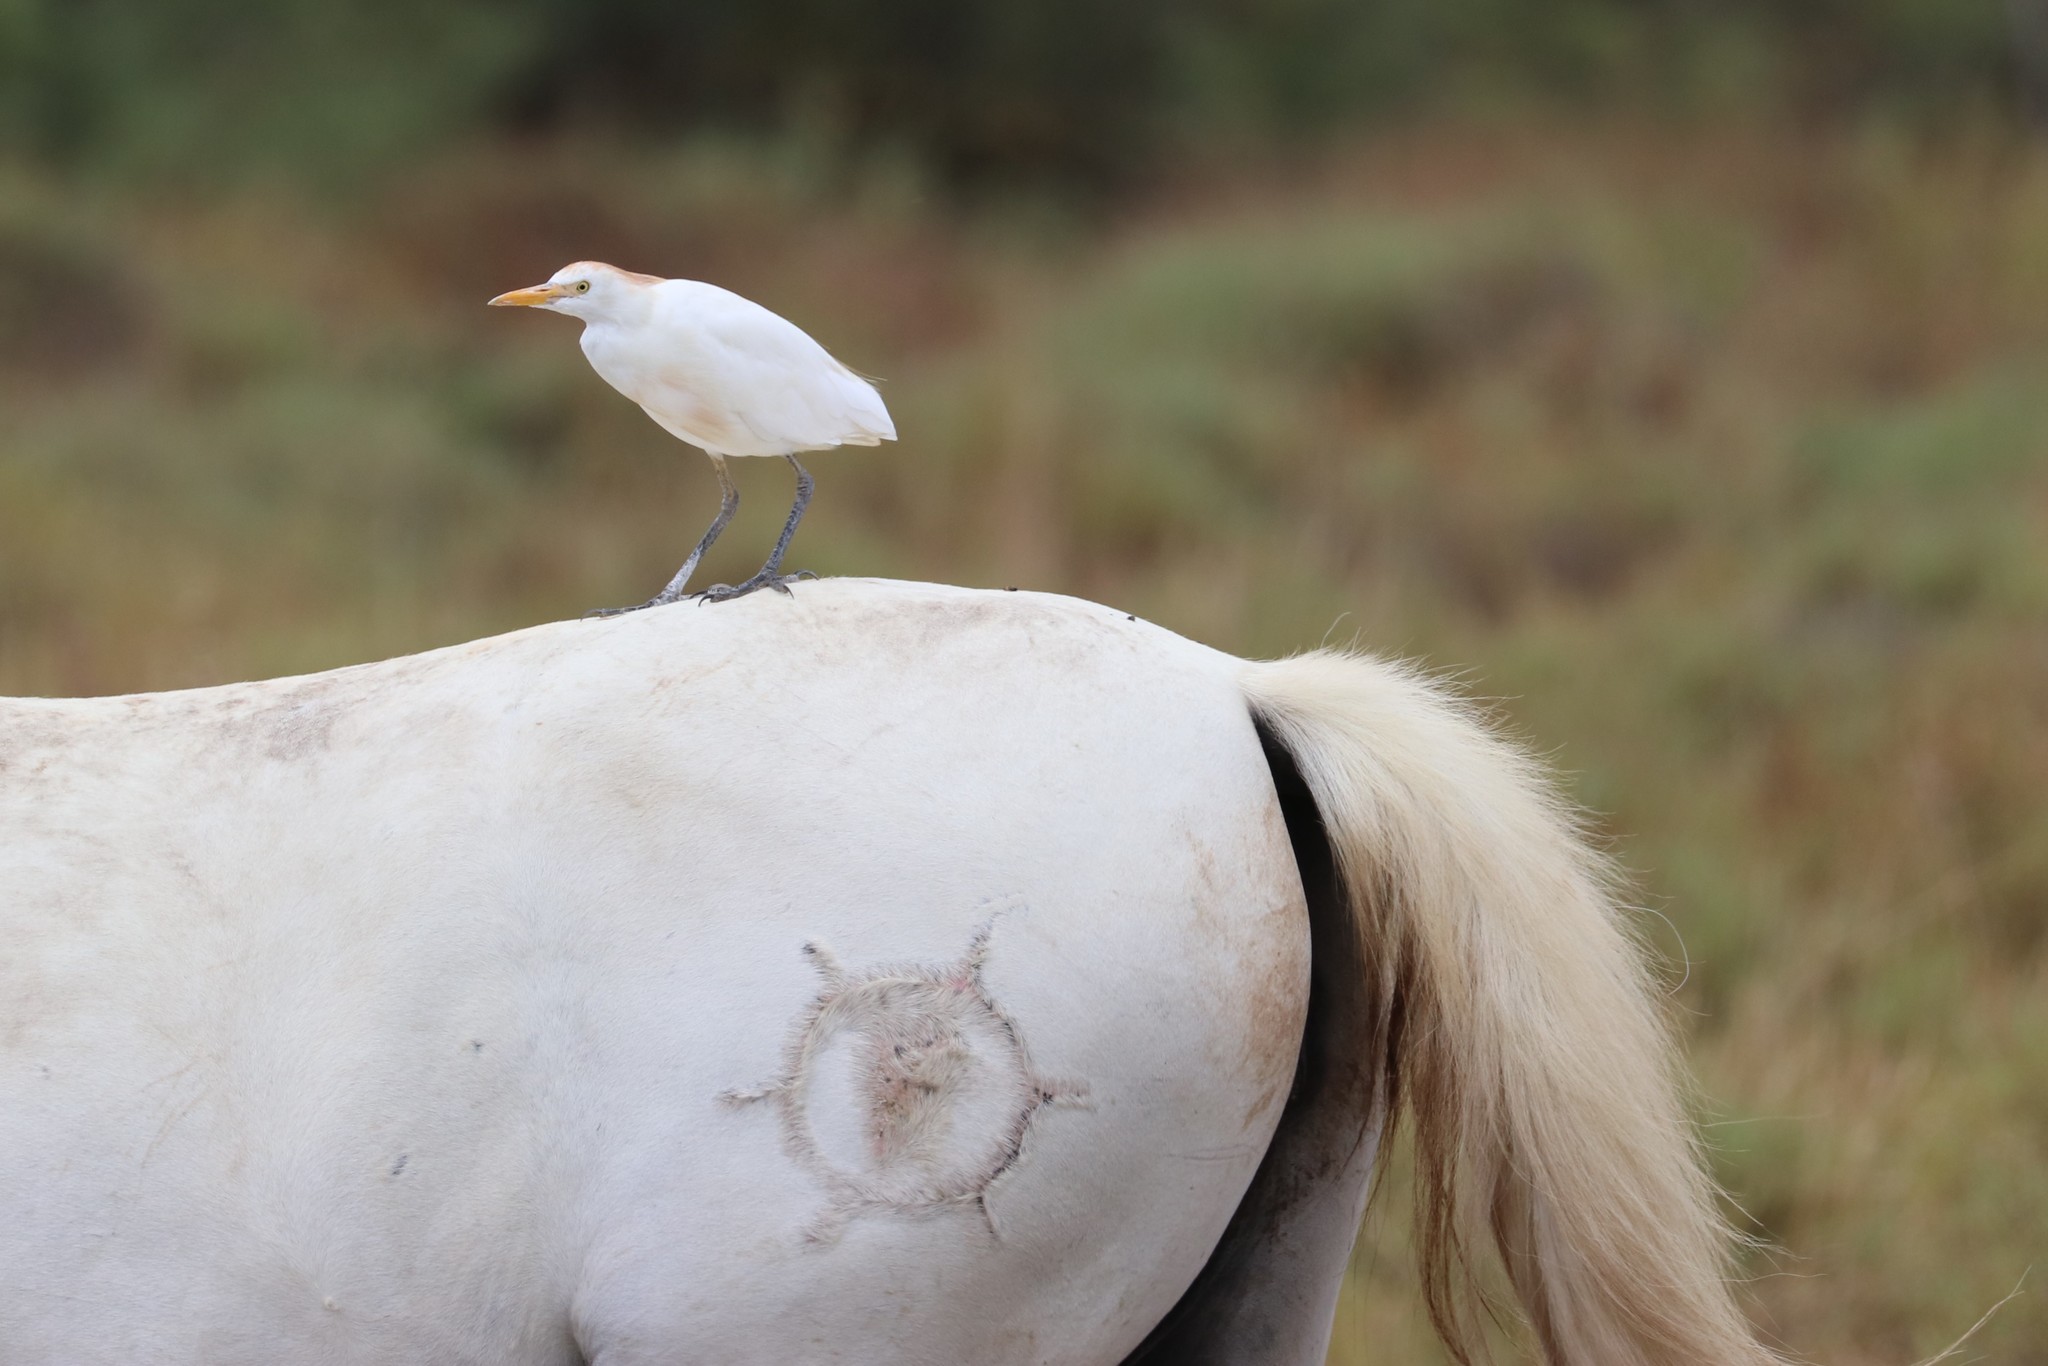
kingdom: Animalia
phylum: Chordata
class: Aves
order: Pelecaniformes
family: Ardeidae
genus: Bubulcus
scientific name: Bubulcus ibis
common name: Cattle egret
